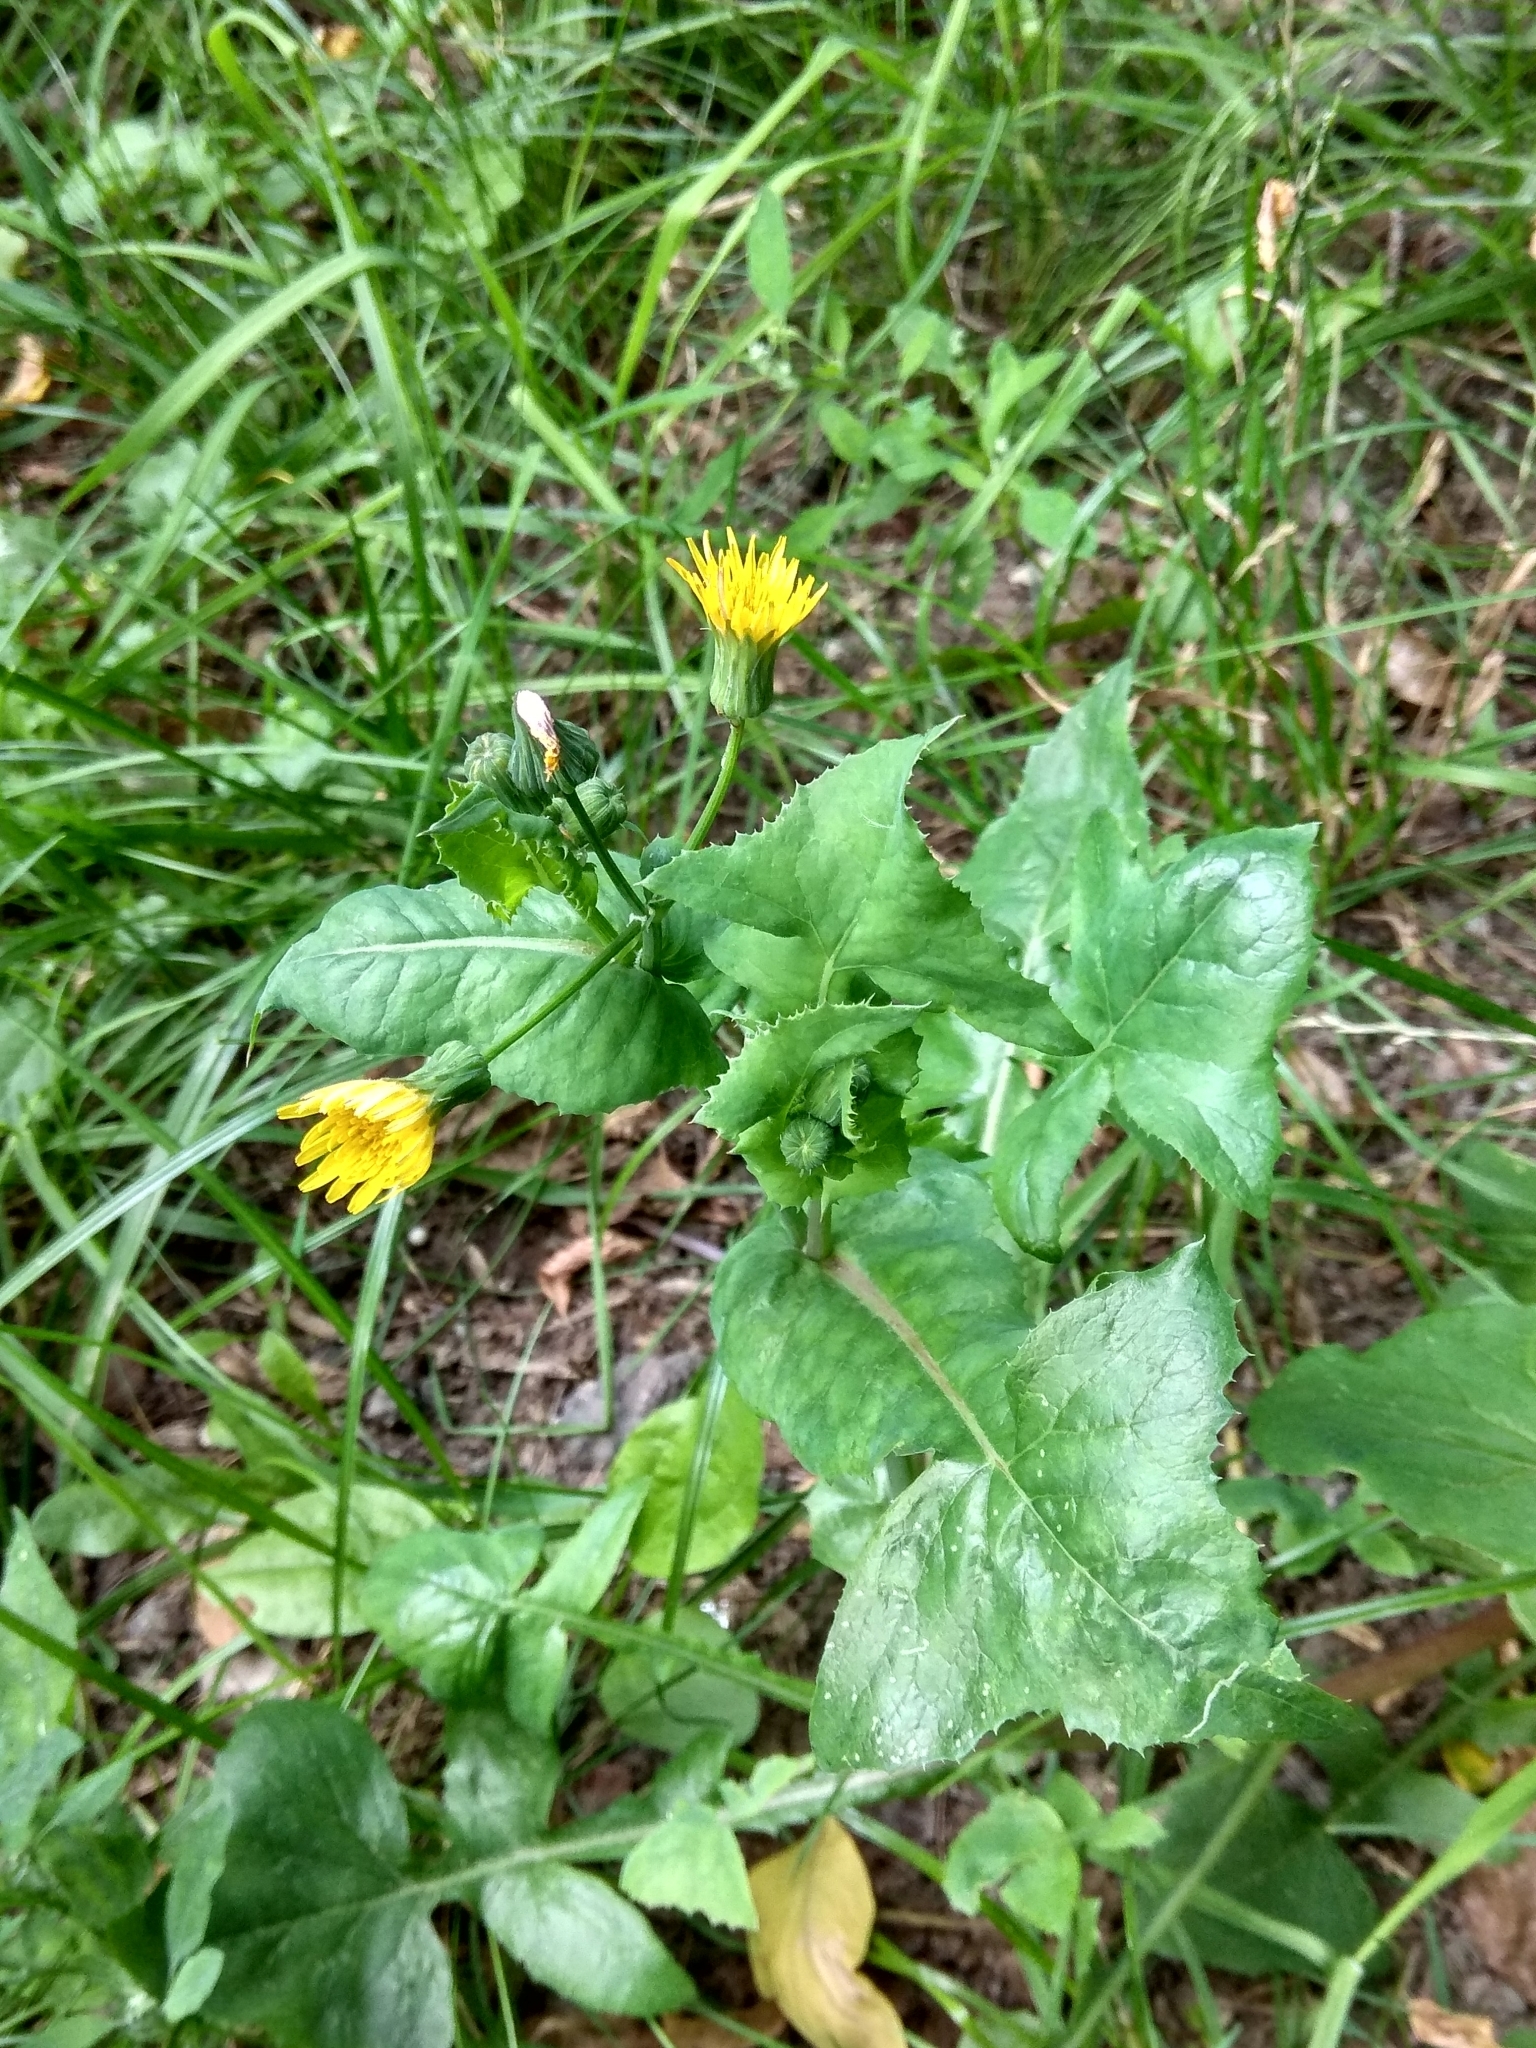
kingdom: Plantae
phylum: Tracheophyta
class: Magnoliopsida
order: Asterales
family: Asteraceae
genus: Sonchus
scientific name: Sonchus oleraceus
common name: Common sowthistle
